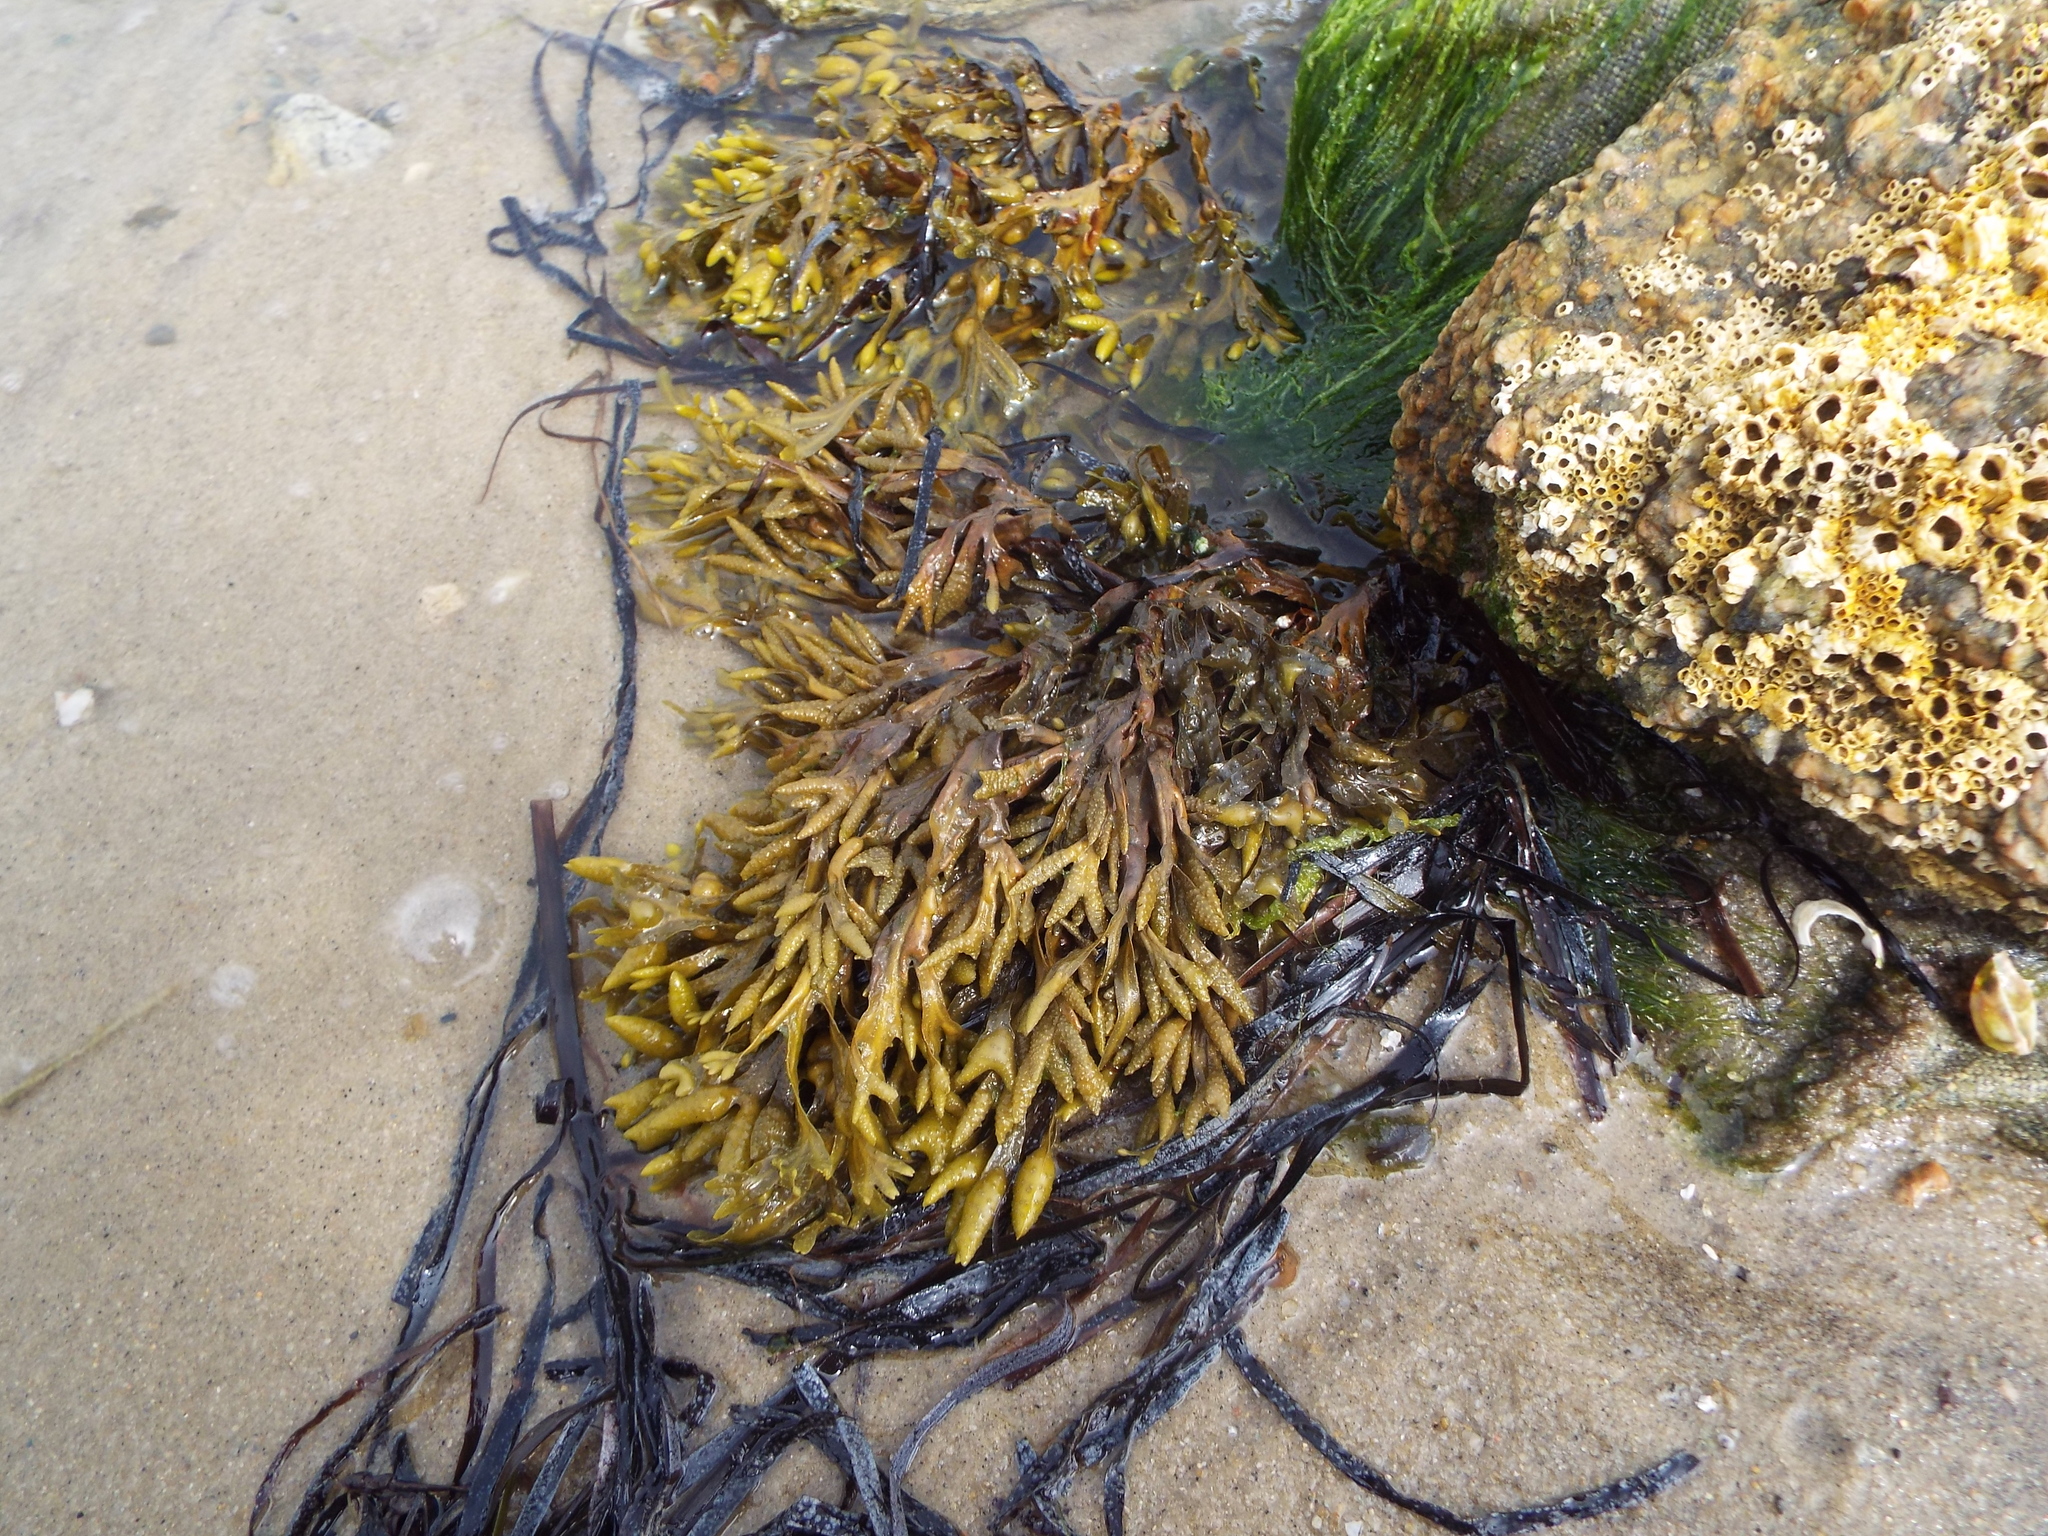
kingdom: Chromista
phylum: Ochrophyta
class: Phaeophyceae
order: Fucales
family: Fucaceae
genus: Fucus
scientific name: Fucus distichus
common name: Rockweed
